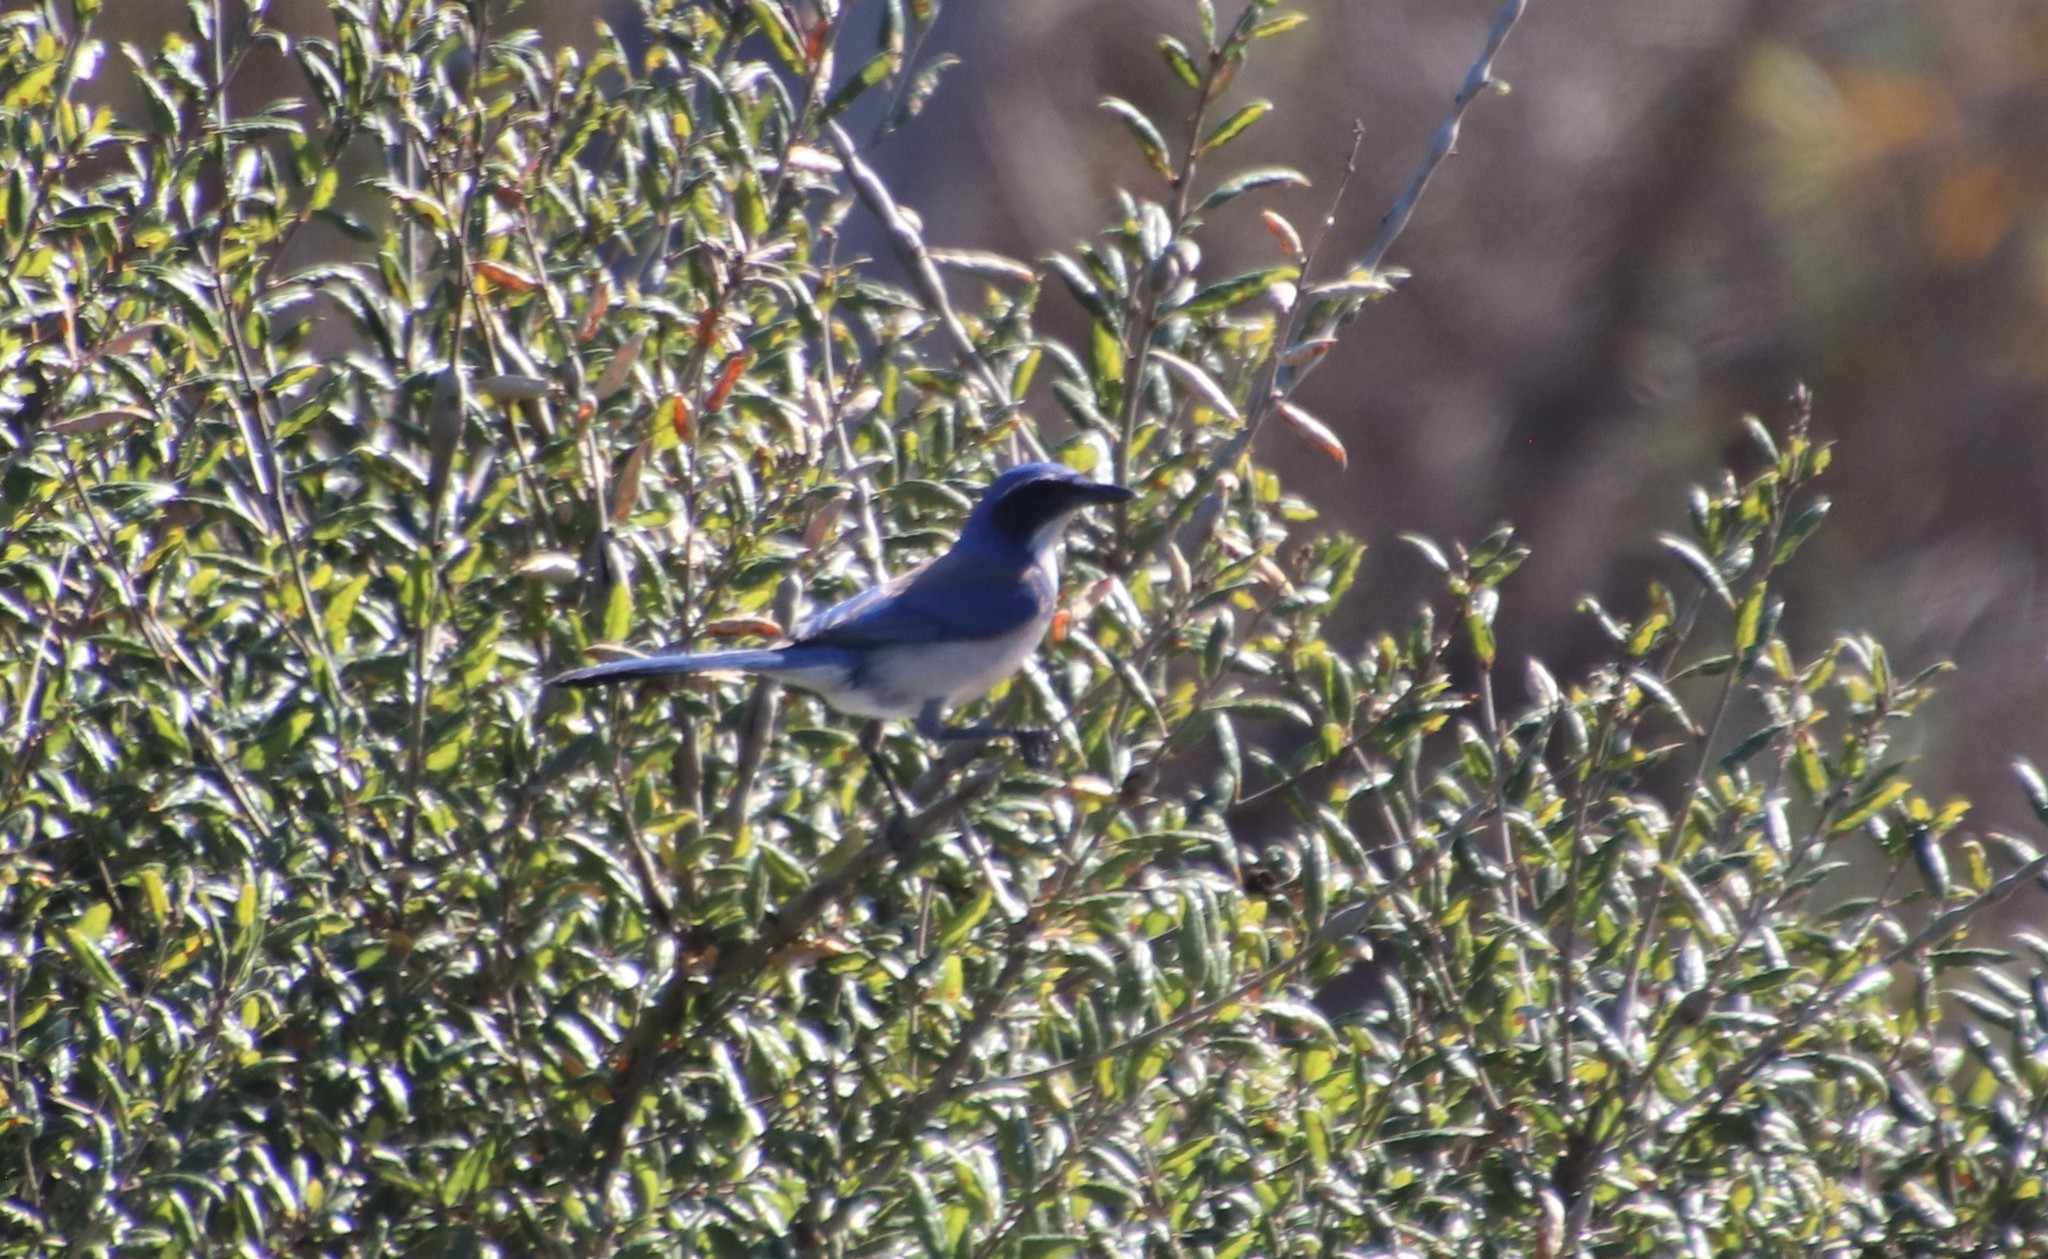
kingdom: Animalia
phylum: Chordata
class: Aves
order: Passeriformes
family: Corvidae
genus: Aphelocoma
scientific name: Aphelocoma californica
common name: California scrub-jay
